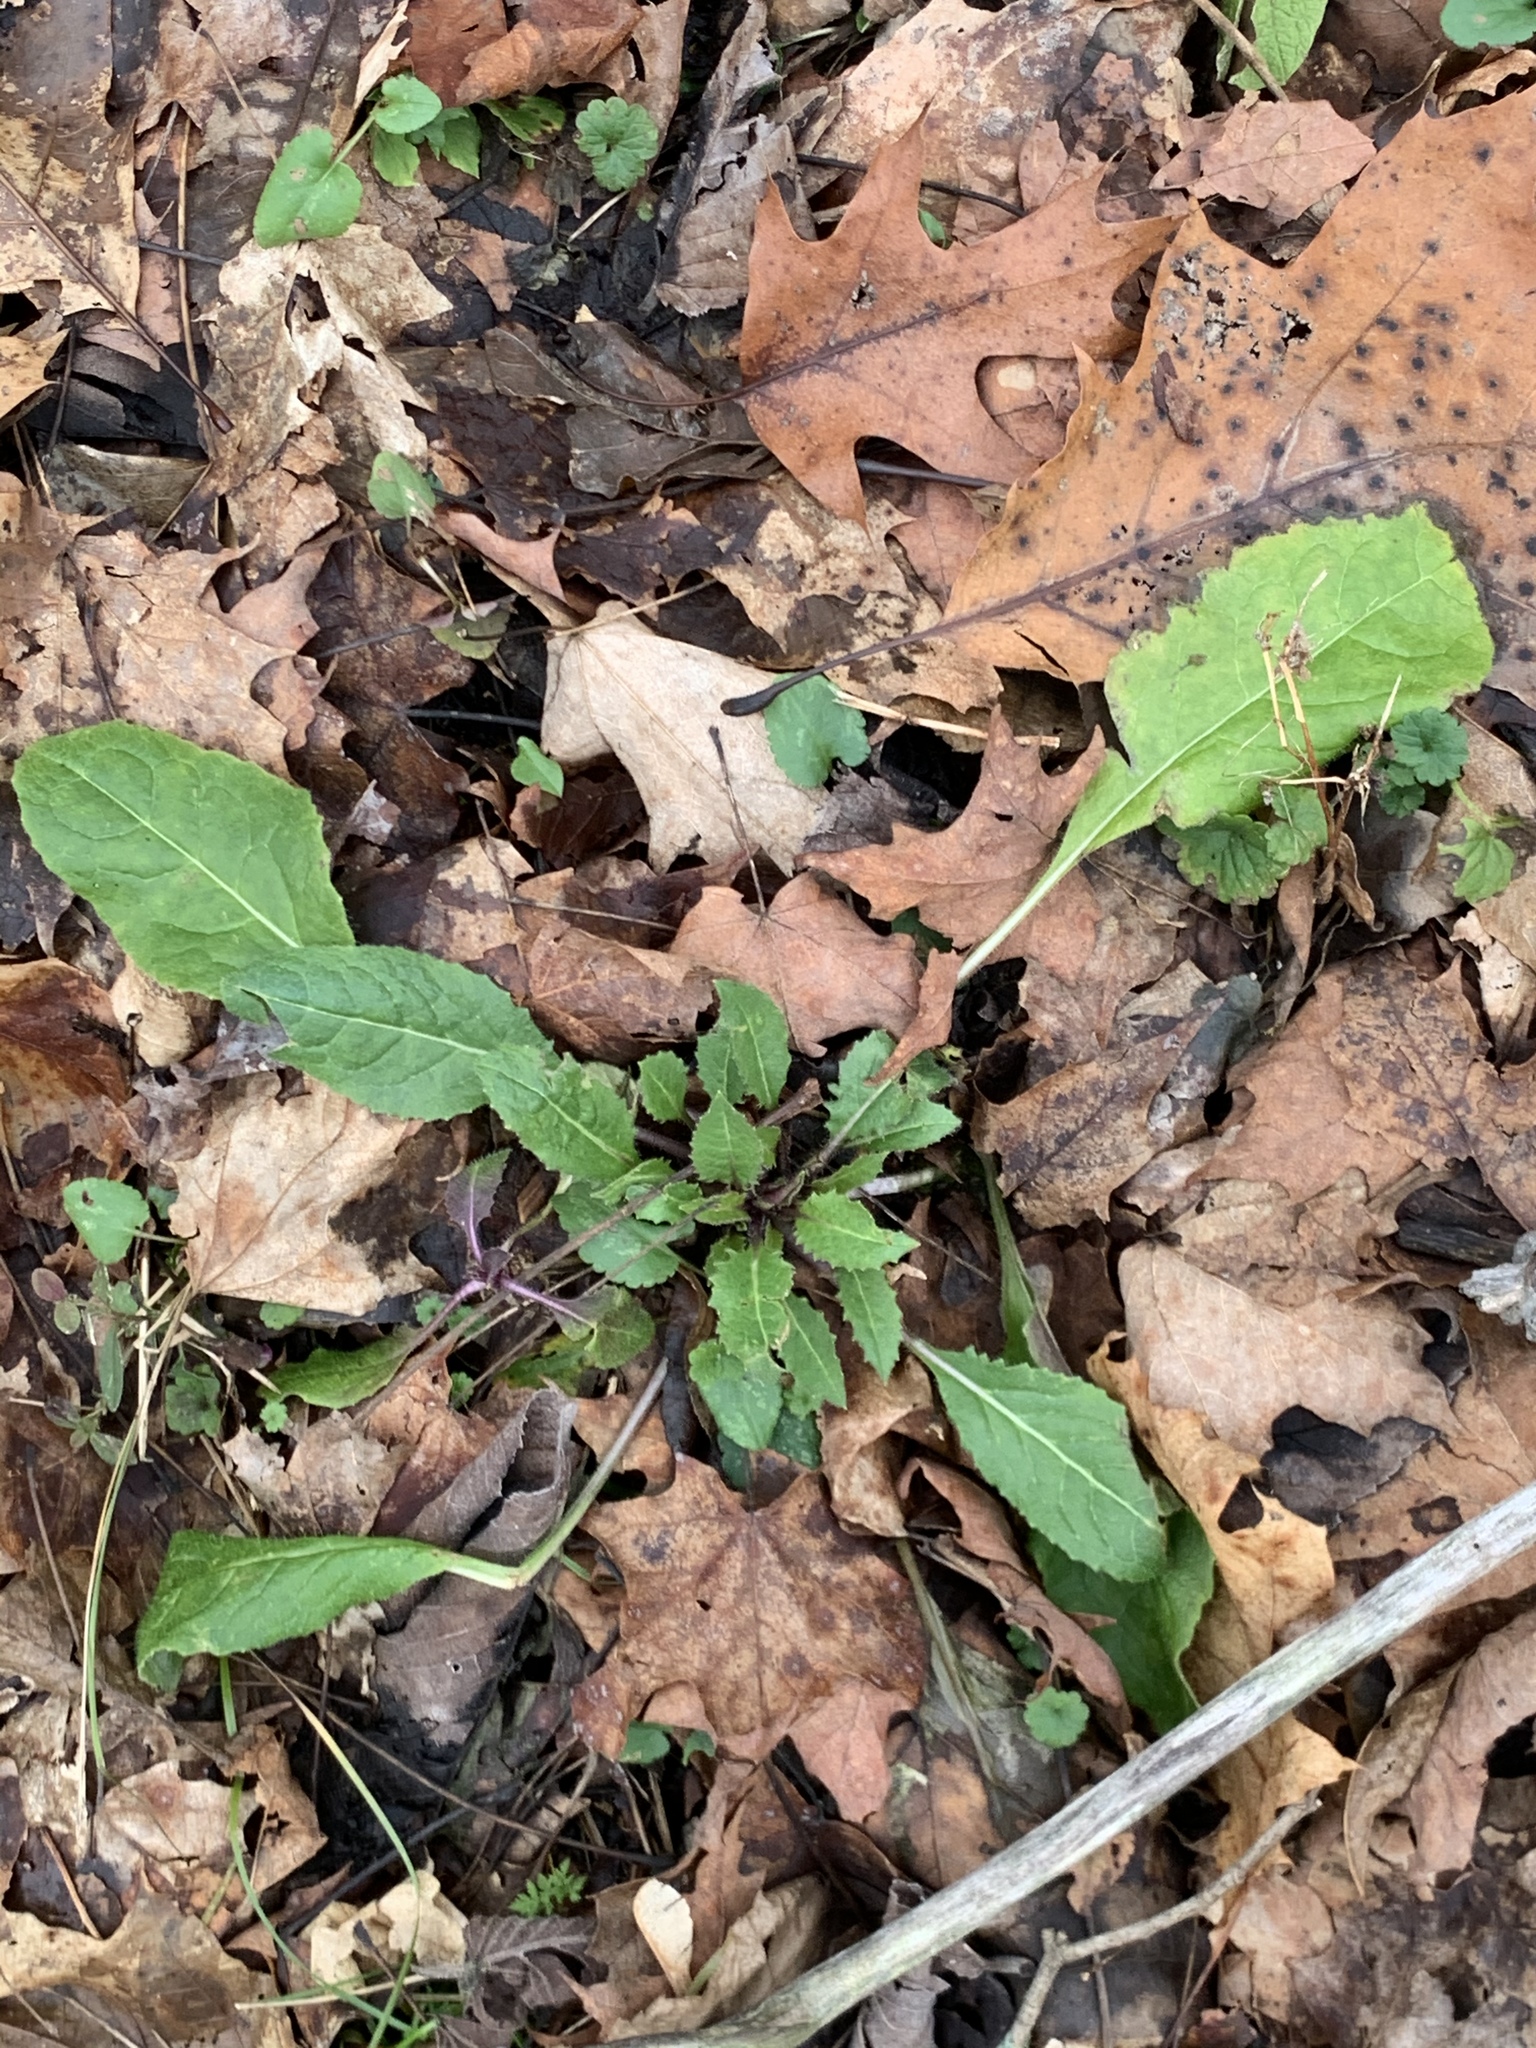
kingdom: Plantae
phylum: Tracheophyta
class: Magnoliopsida
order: Brassicales
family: Brassicaceae
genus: Hesperis
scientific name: Hesperis matronalis
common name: Dame's-violet
